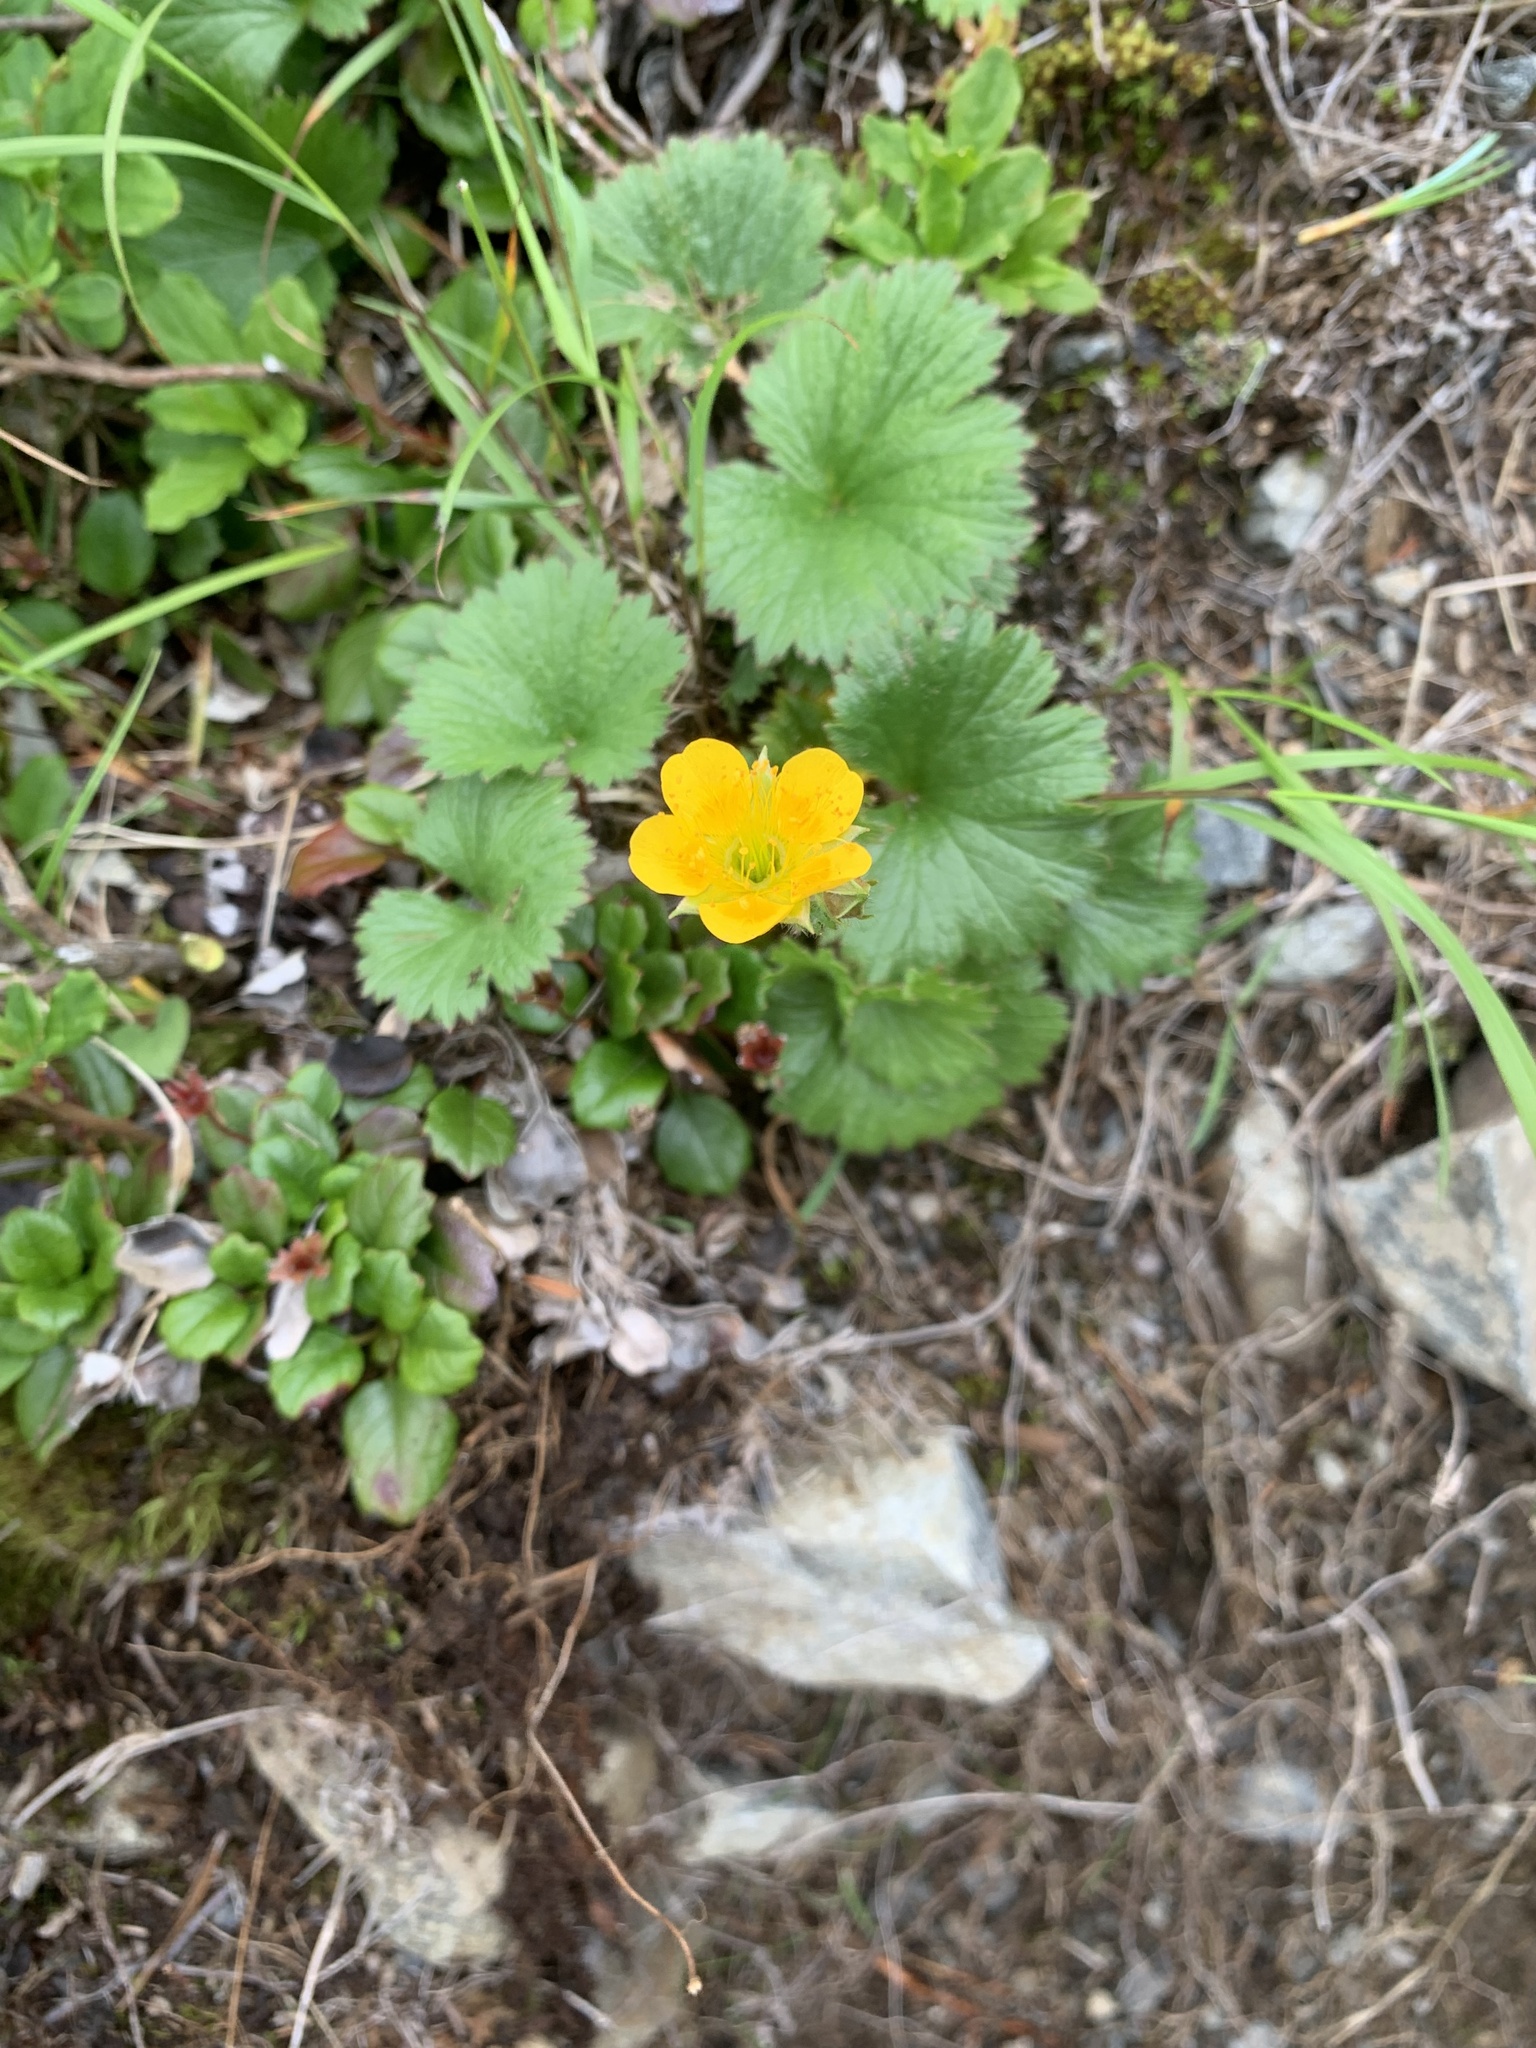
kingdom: Plantae
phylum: Tracheophyta
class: Magnoliopsida
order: Rosales
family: Rosaceae
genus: Geum
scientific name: Geum calthifolium
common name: Caltha-leaved avens
